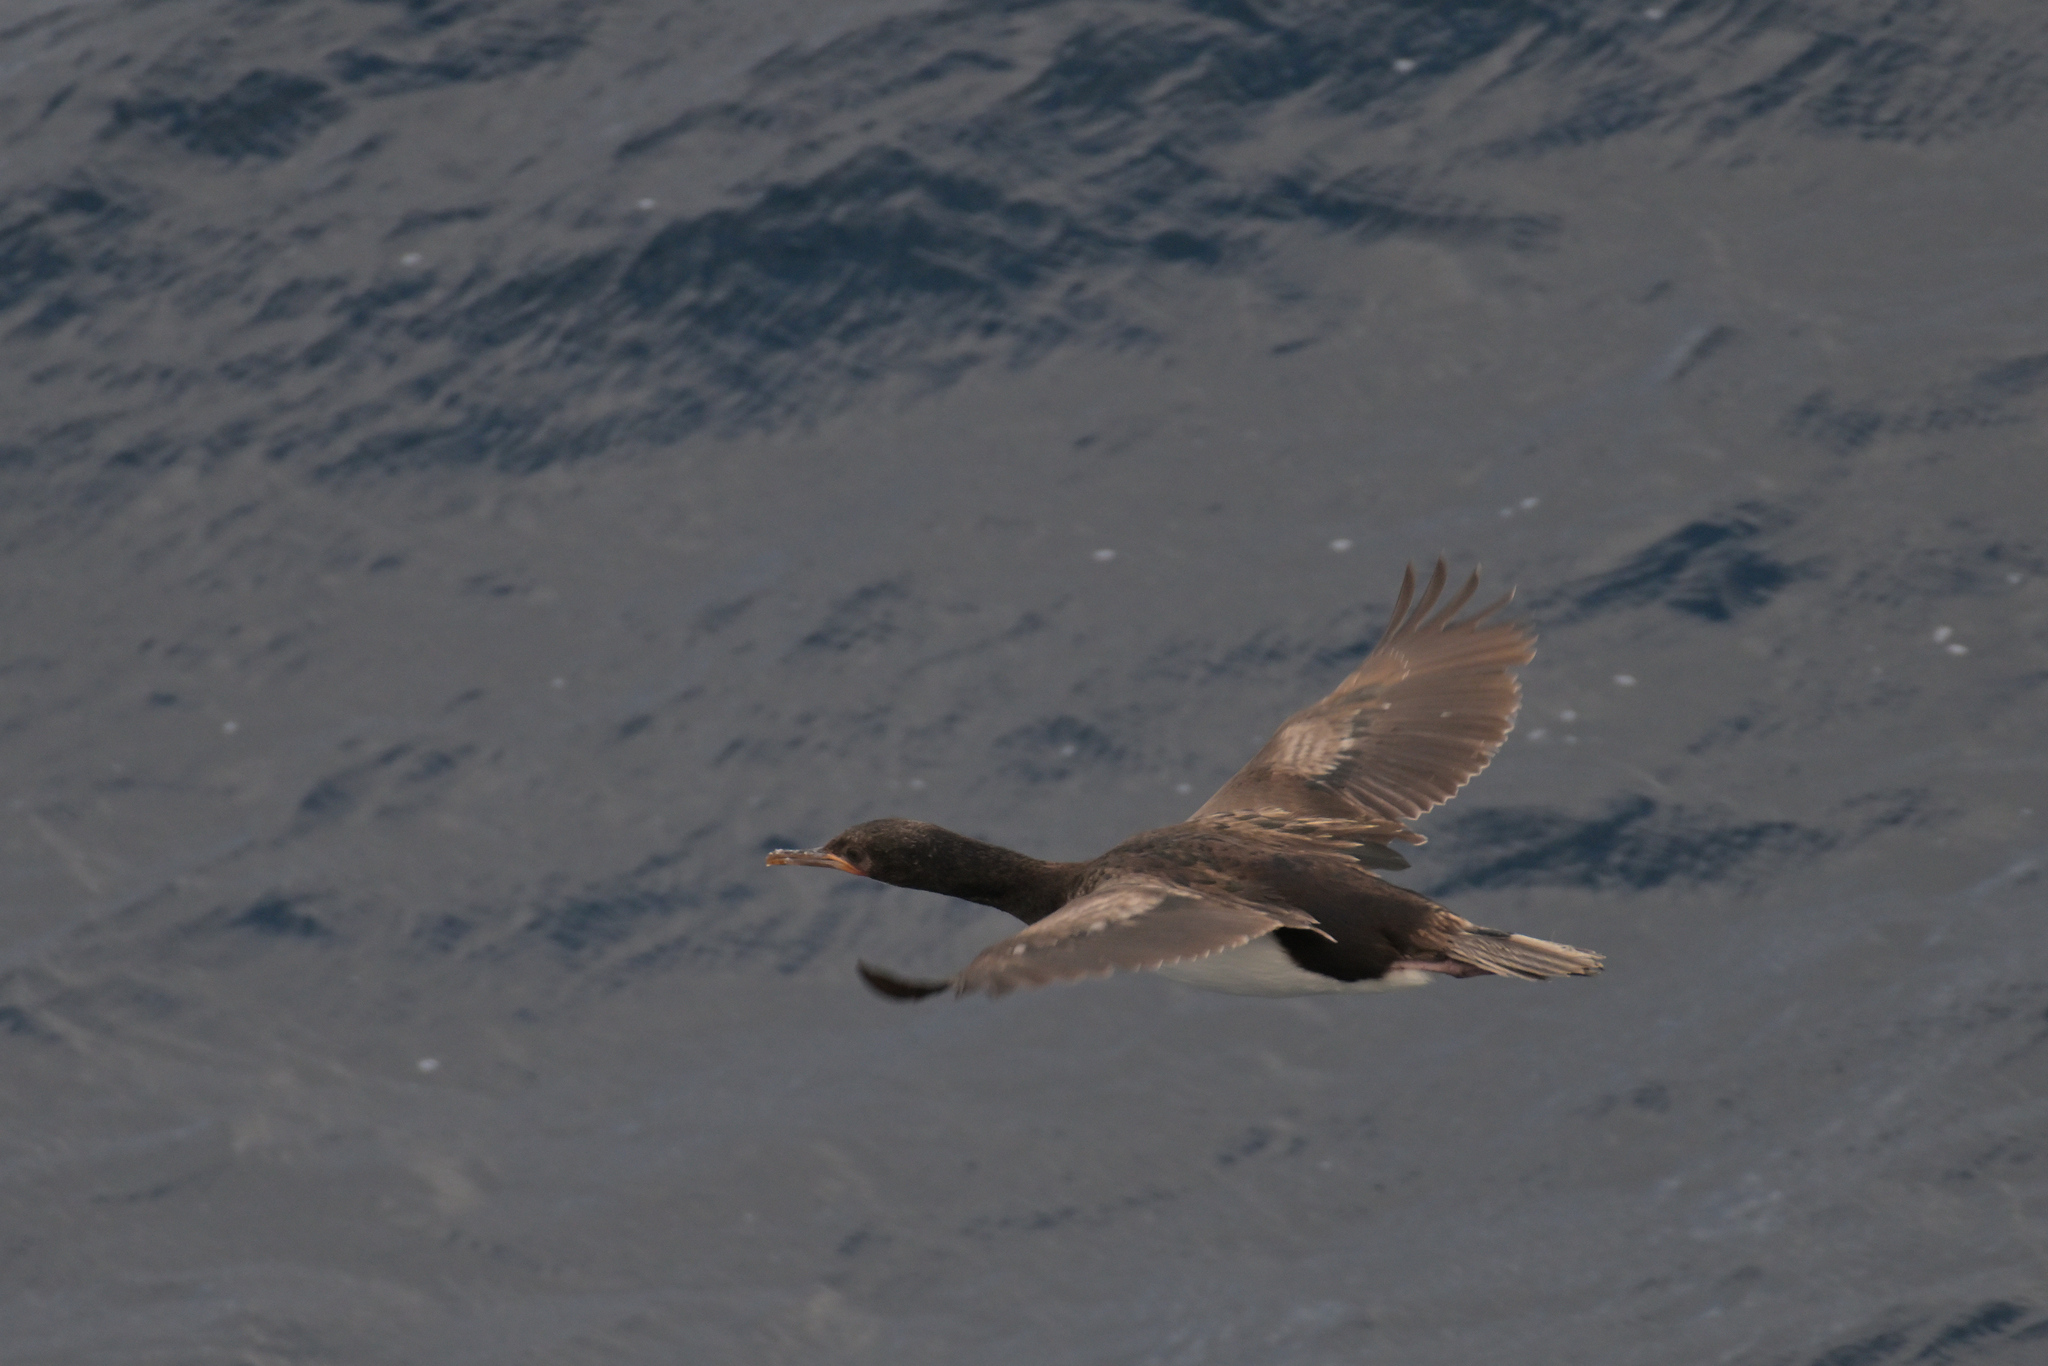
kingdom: Animalia
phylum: Chordata
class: Aves
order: Suliformes
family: Phalacrocoracidae
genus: Leucocarbo
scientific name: Leucocarbo campbelli
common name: Campbell shag
